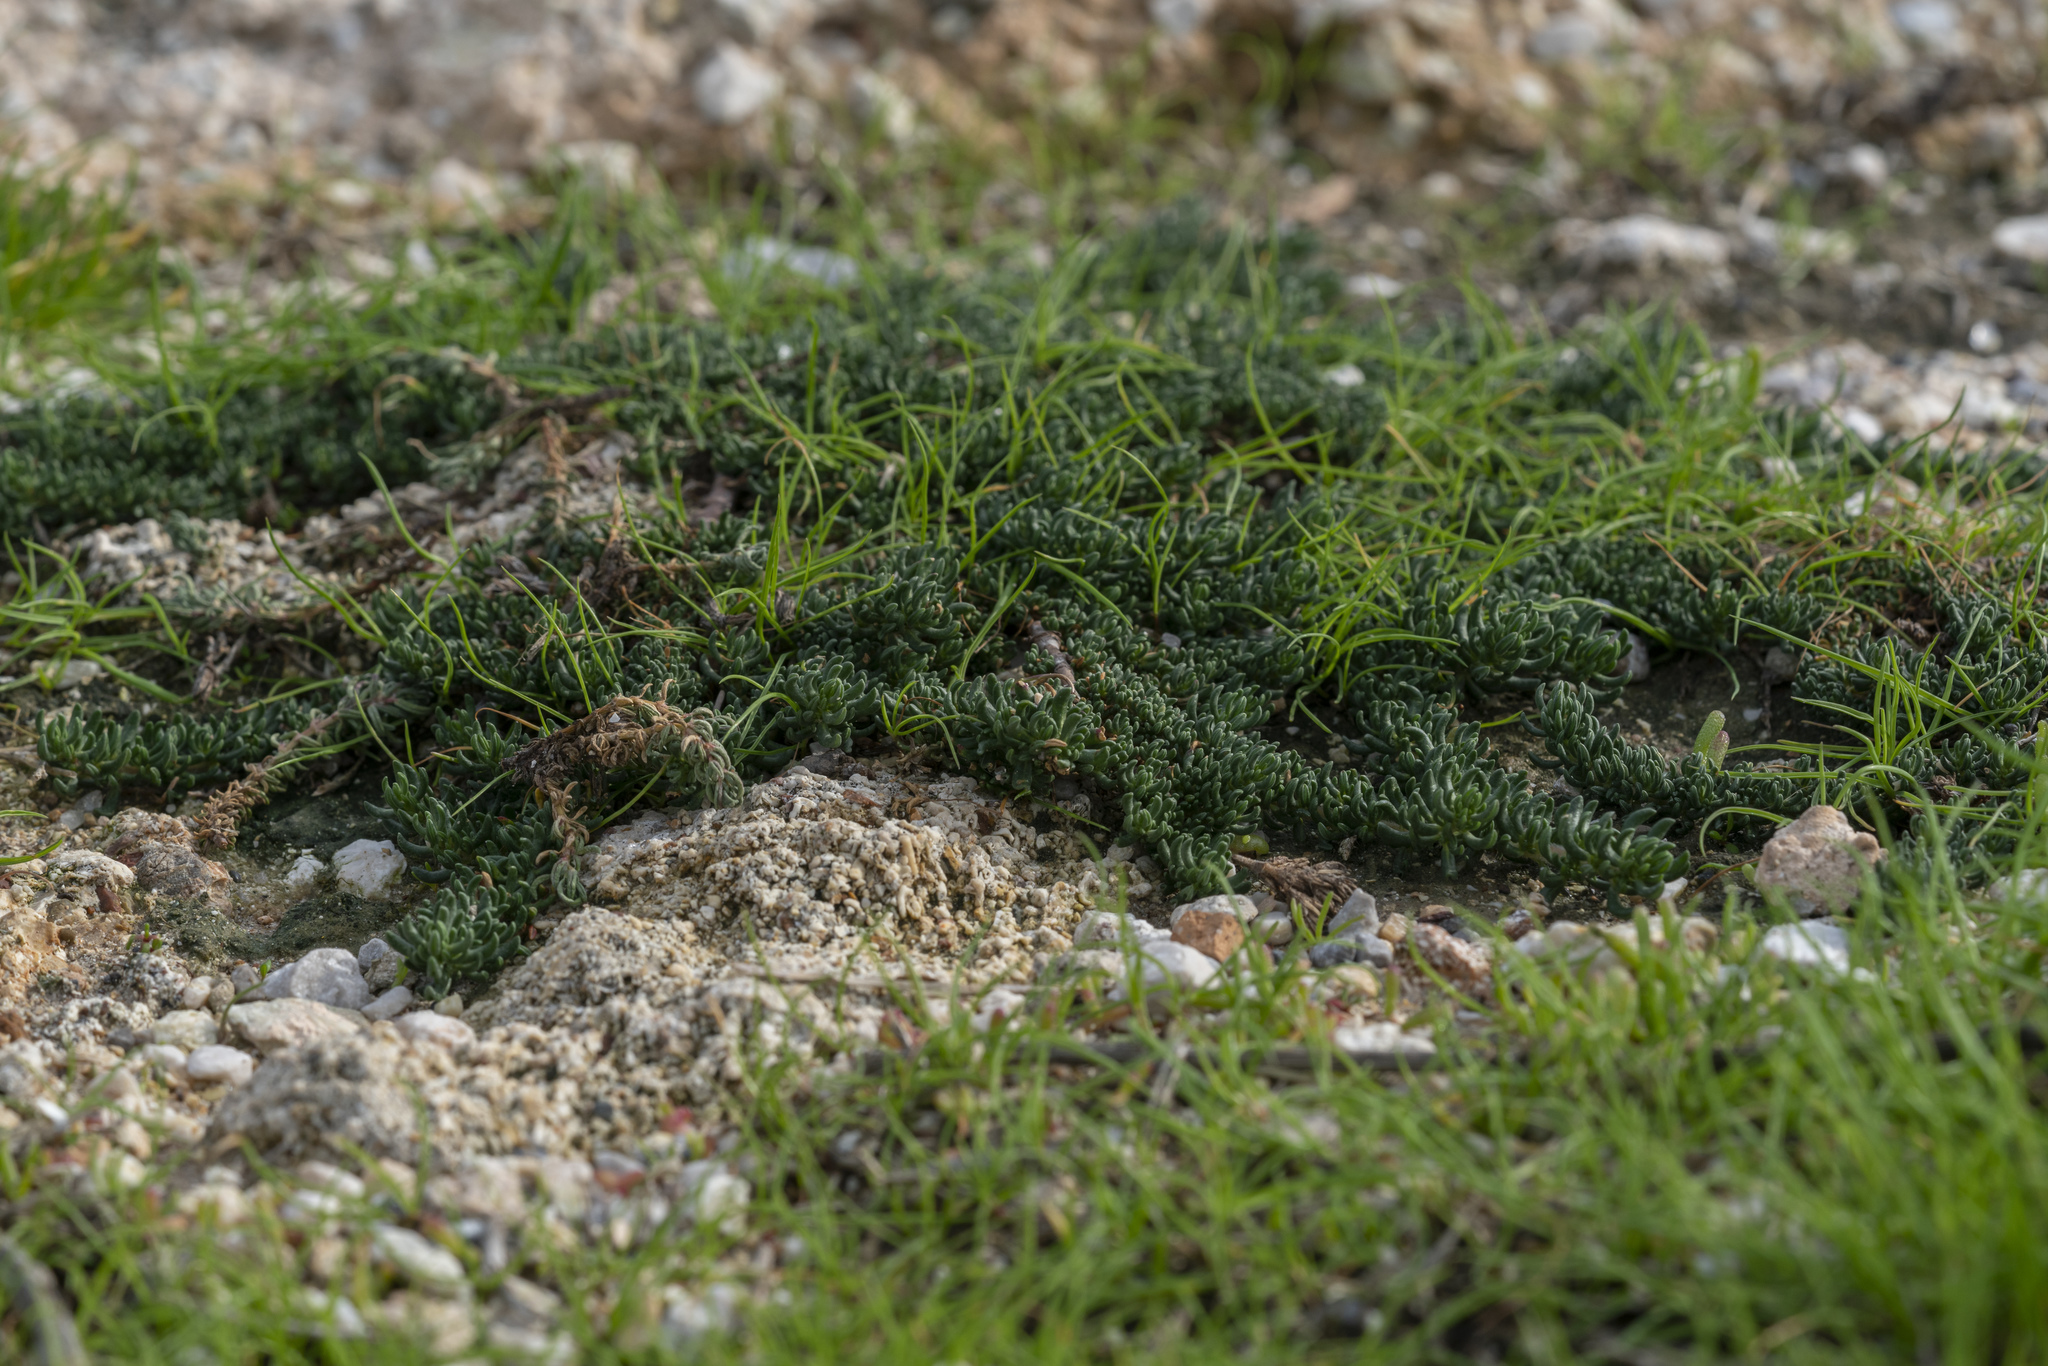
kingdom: Plantae
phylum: Tracheophyta
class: Magnoliopsida
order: Caryophyllales
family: Frankeniaceae
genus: Frankenia
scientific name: Frankenia hirsuta
